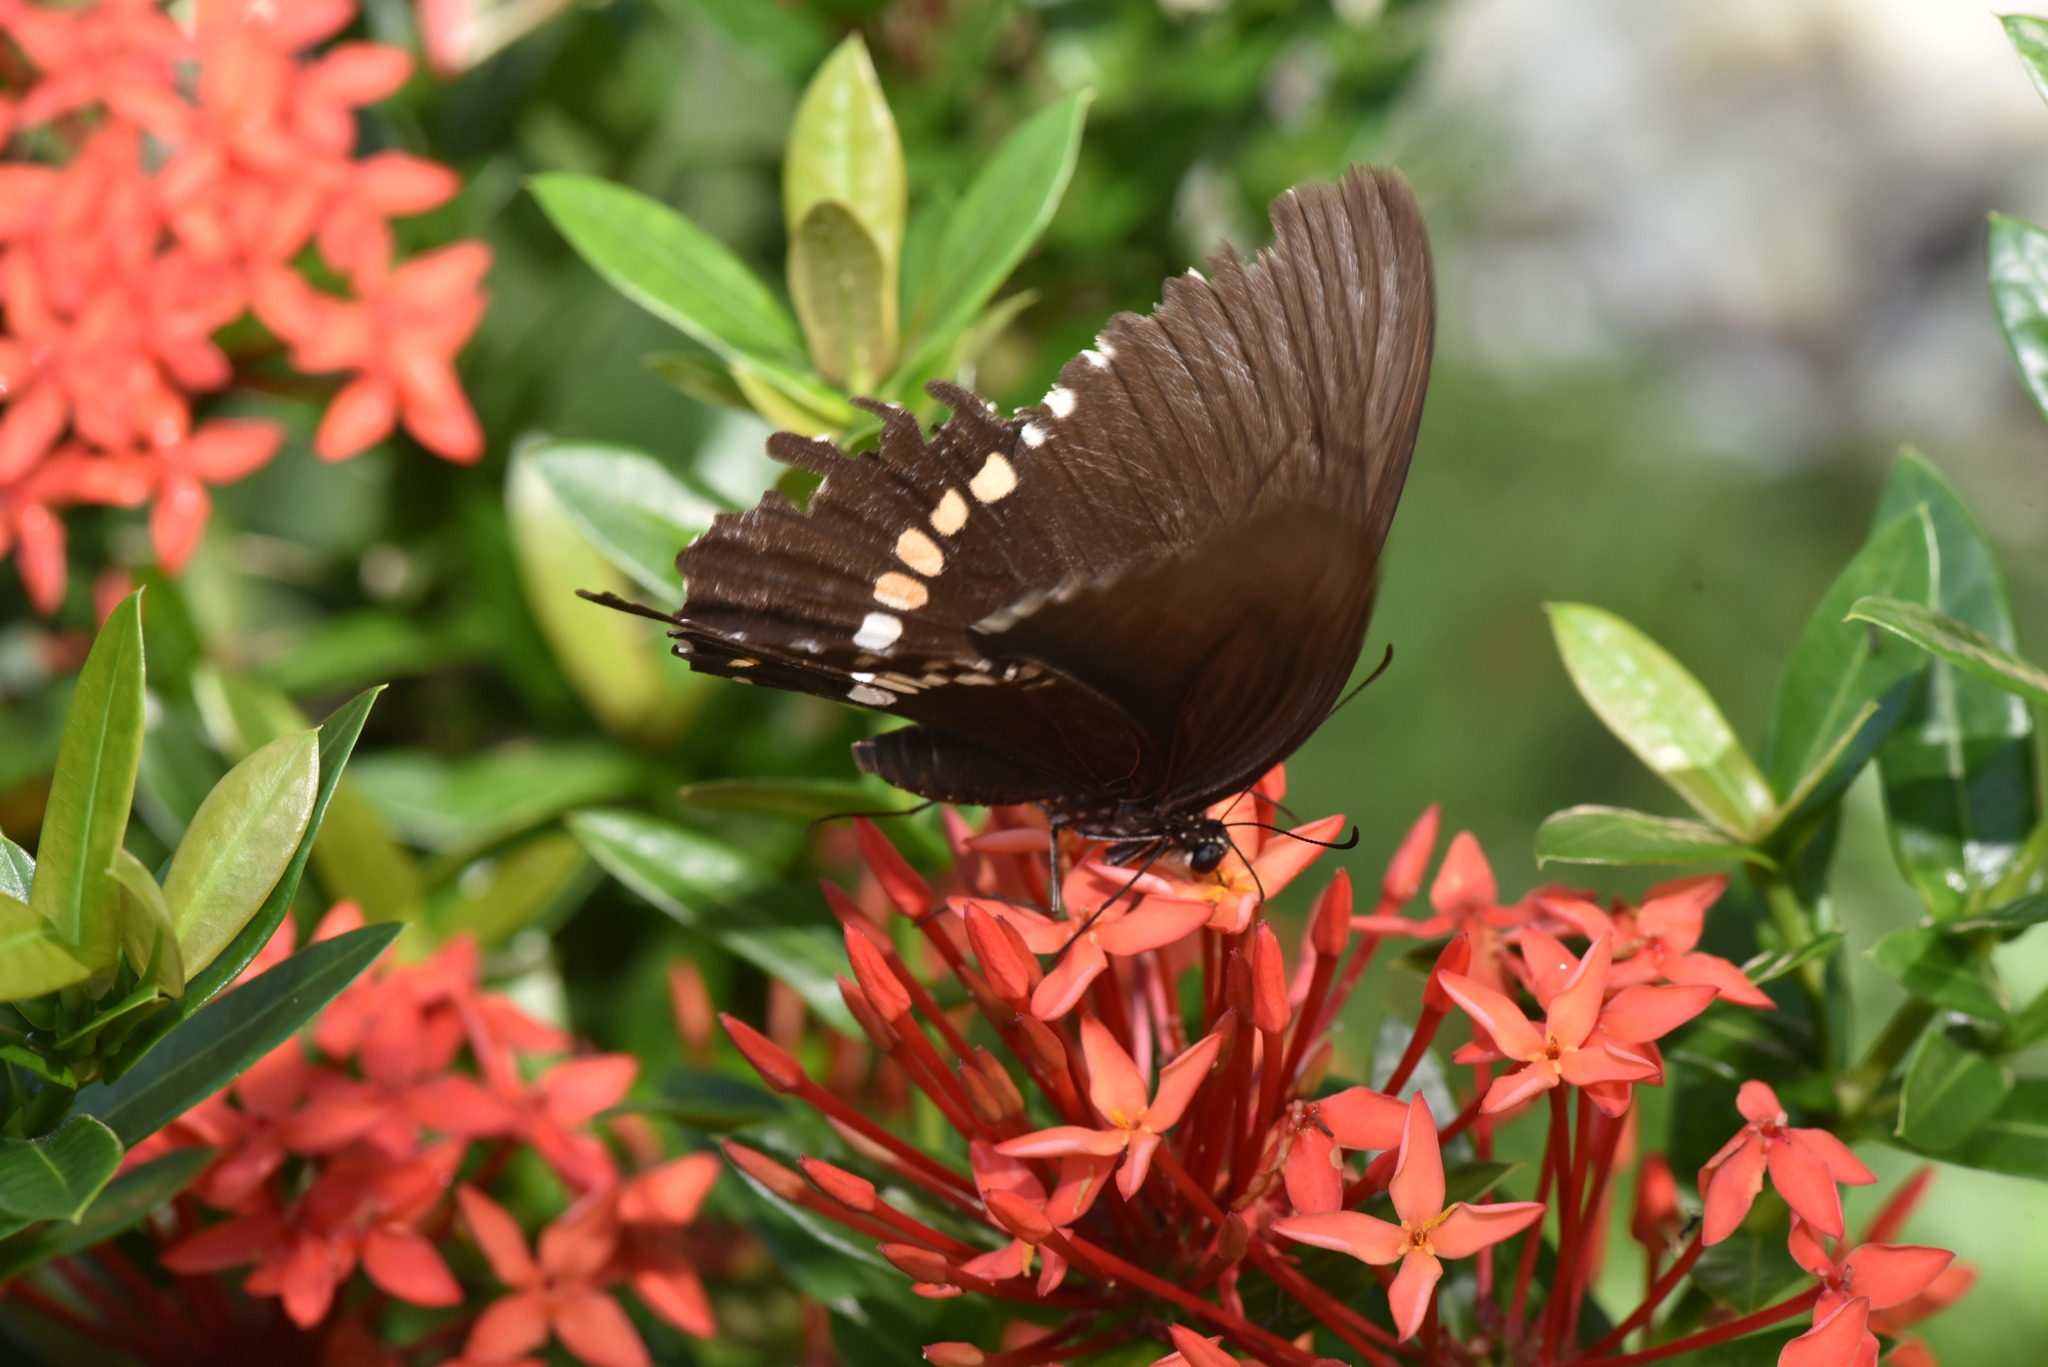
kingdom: Animalia
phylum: Arthropoda
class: Insecta
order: Lepidoptera
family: Papilionidae
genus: Papilio
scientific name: Papilio polytes
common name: Common mormon
